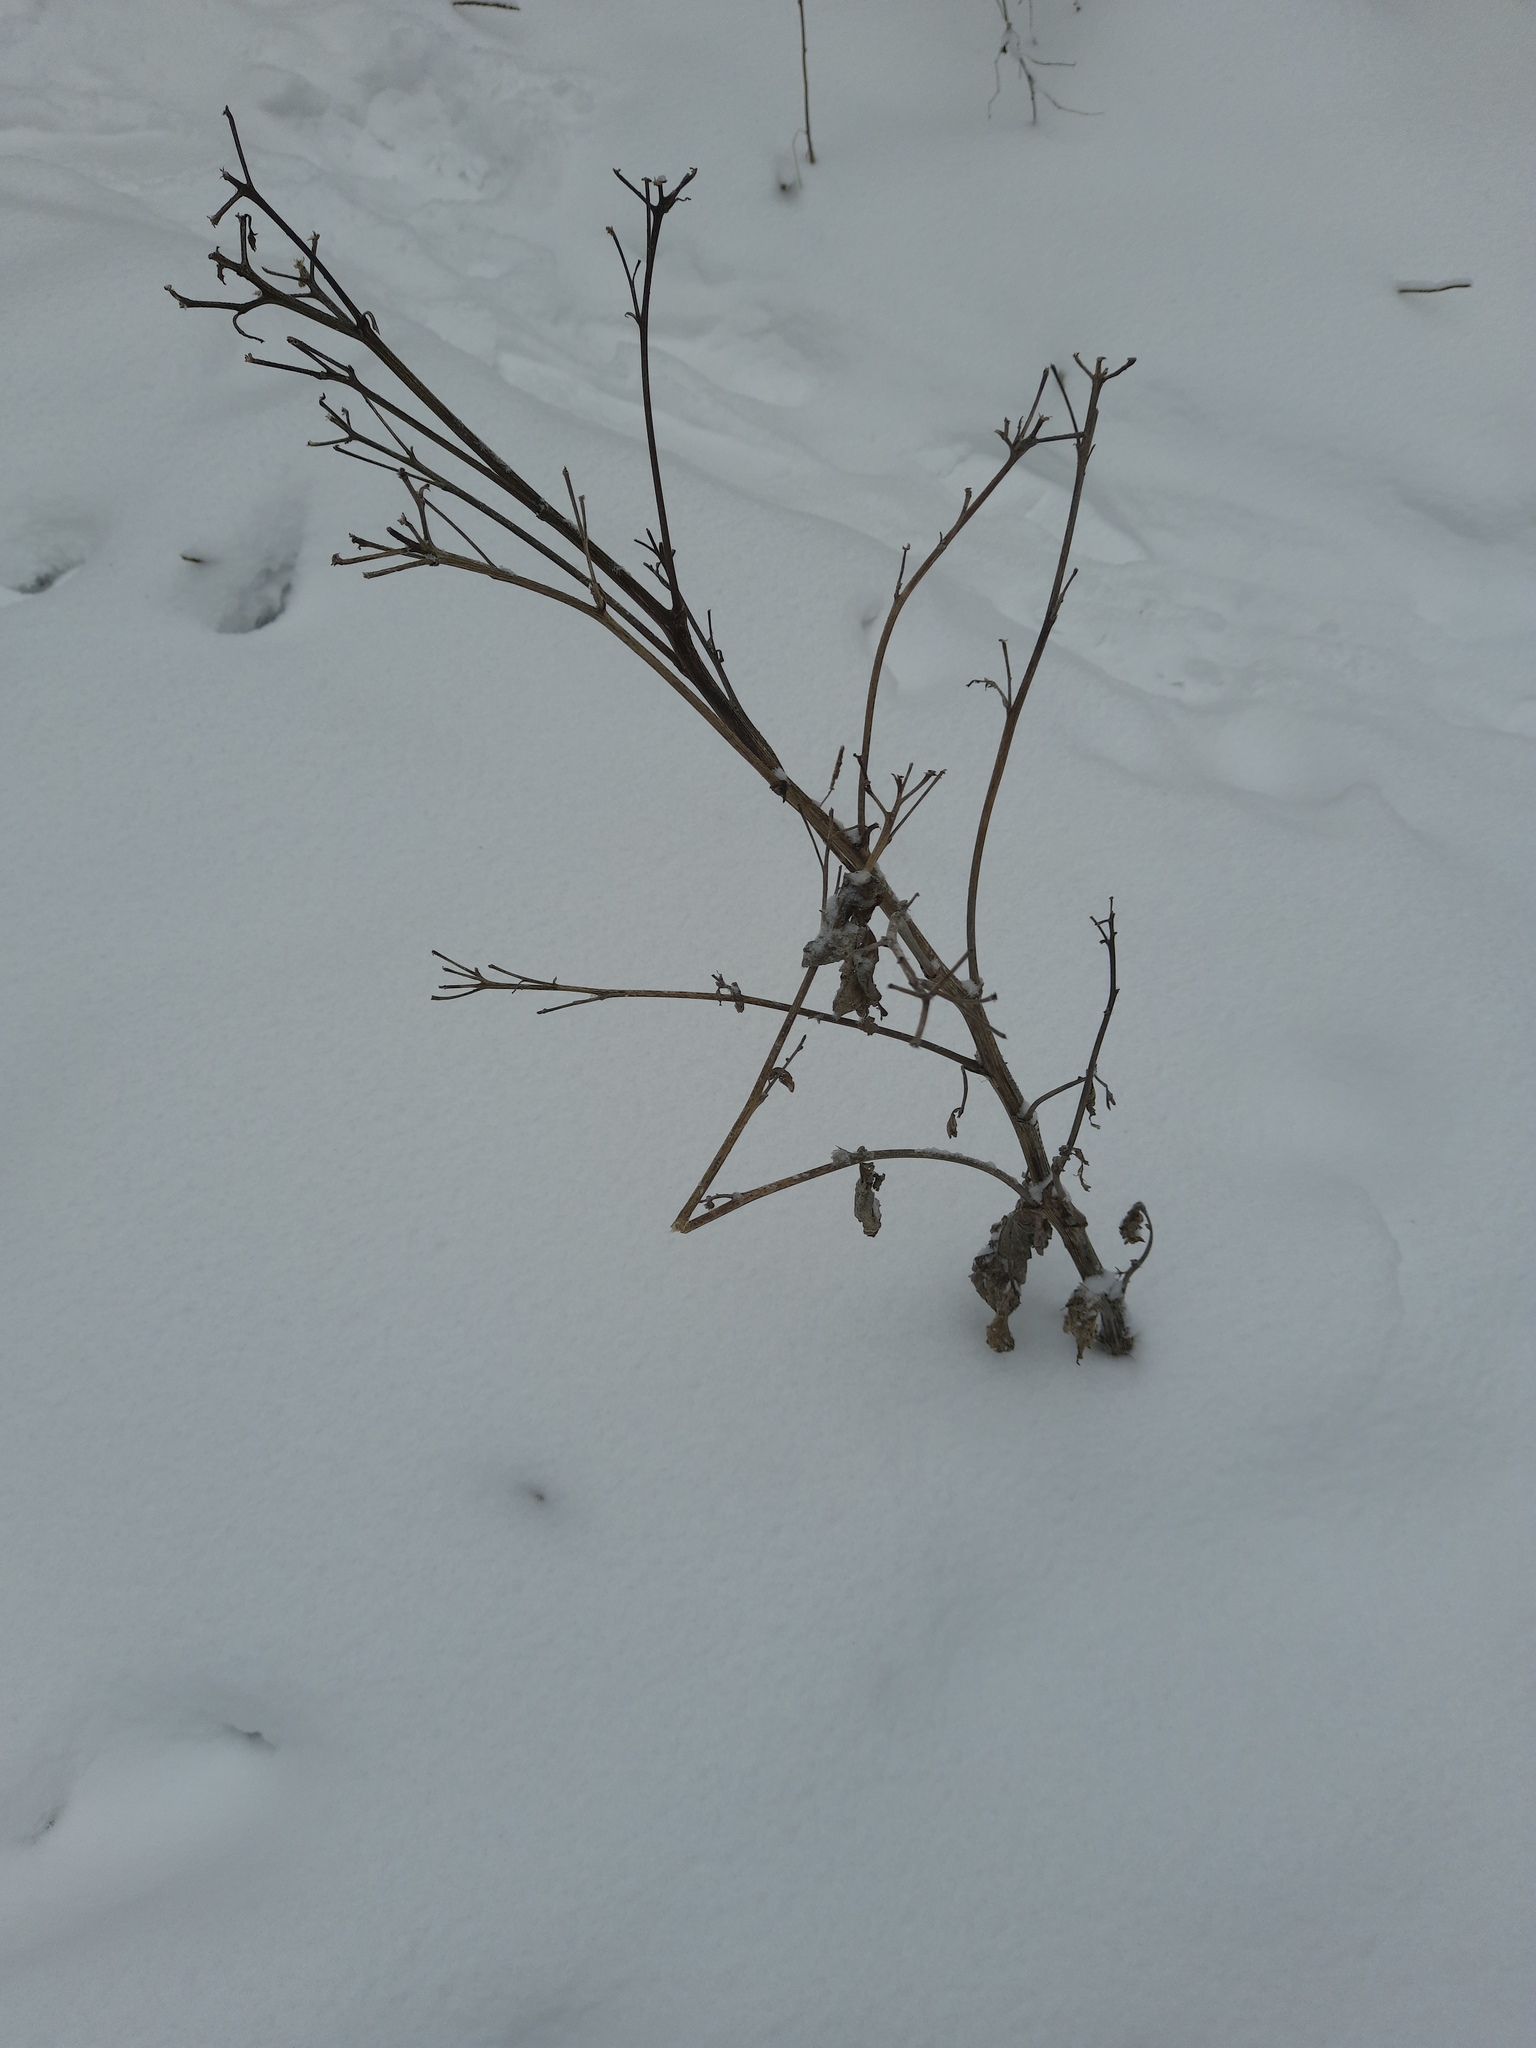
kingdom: Plantae
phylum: Tracheophyta
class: Magnoliopsida
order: Asterales
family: Asteraceae
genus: Arctium
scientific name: Arctium tomentosum
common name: Woolly burdock
